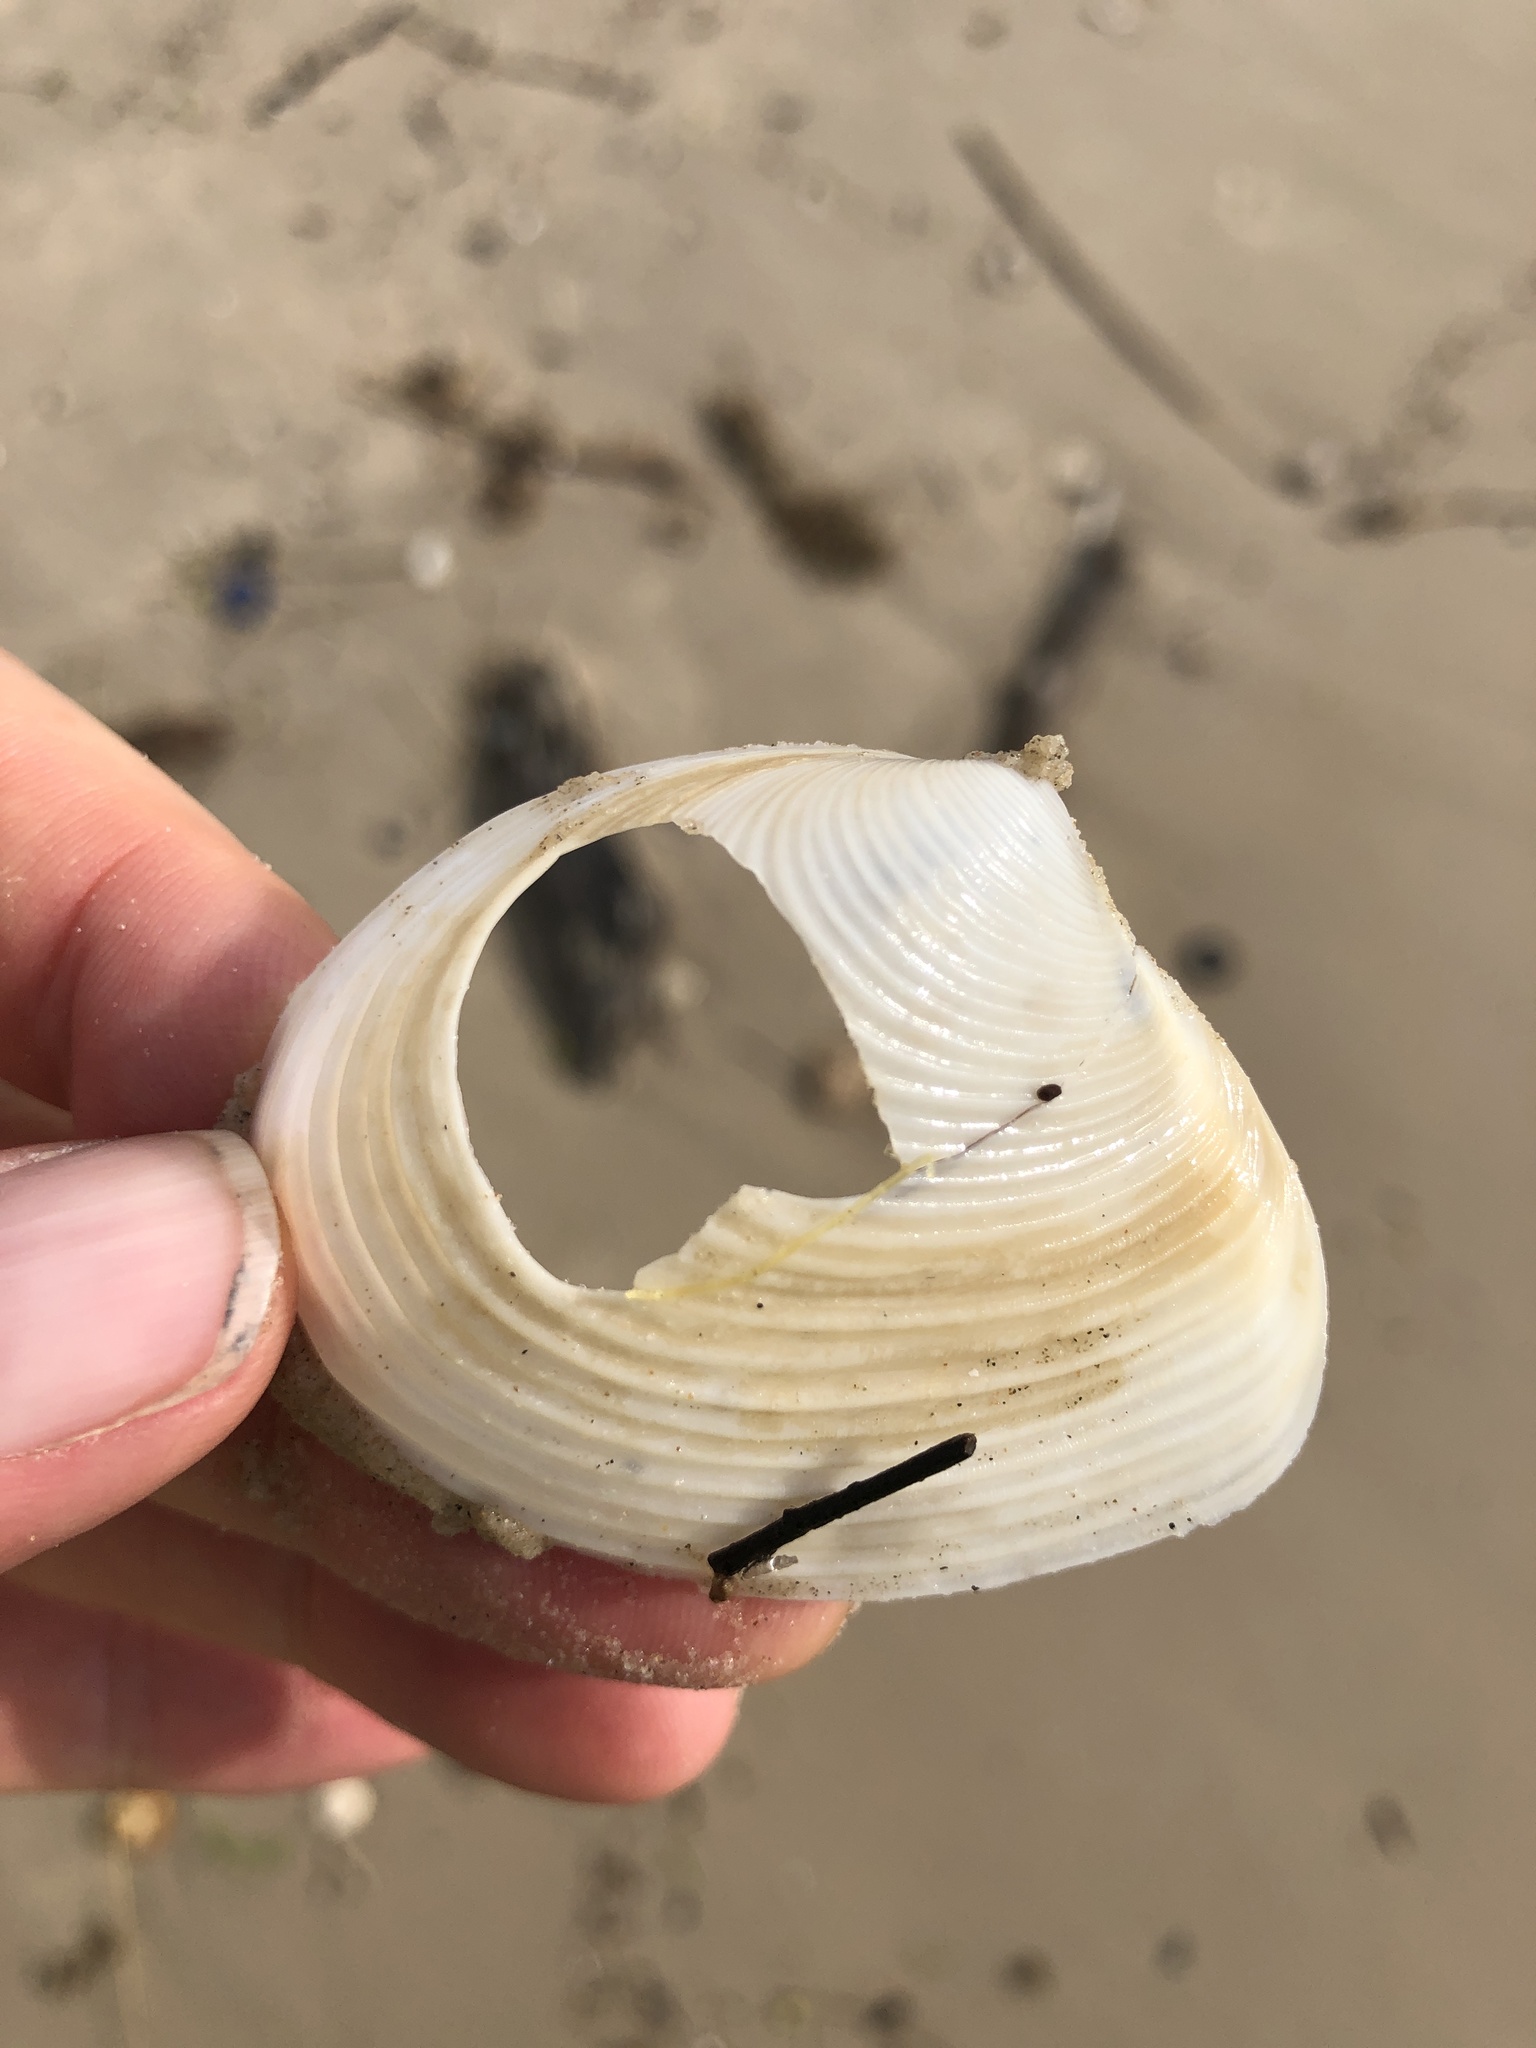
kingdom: Animalia
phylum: Mollusca
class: Bivalvia
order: Venerida
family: Anatinellidae
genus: Raeta
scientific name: Raeta plicatella
